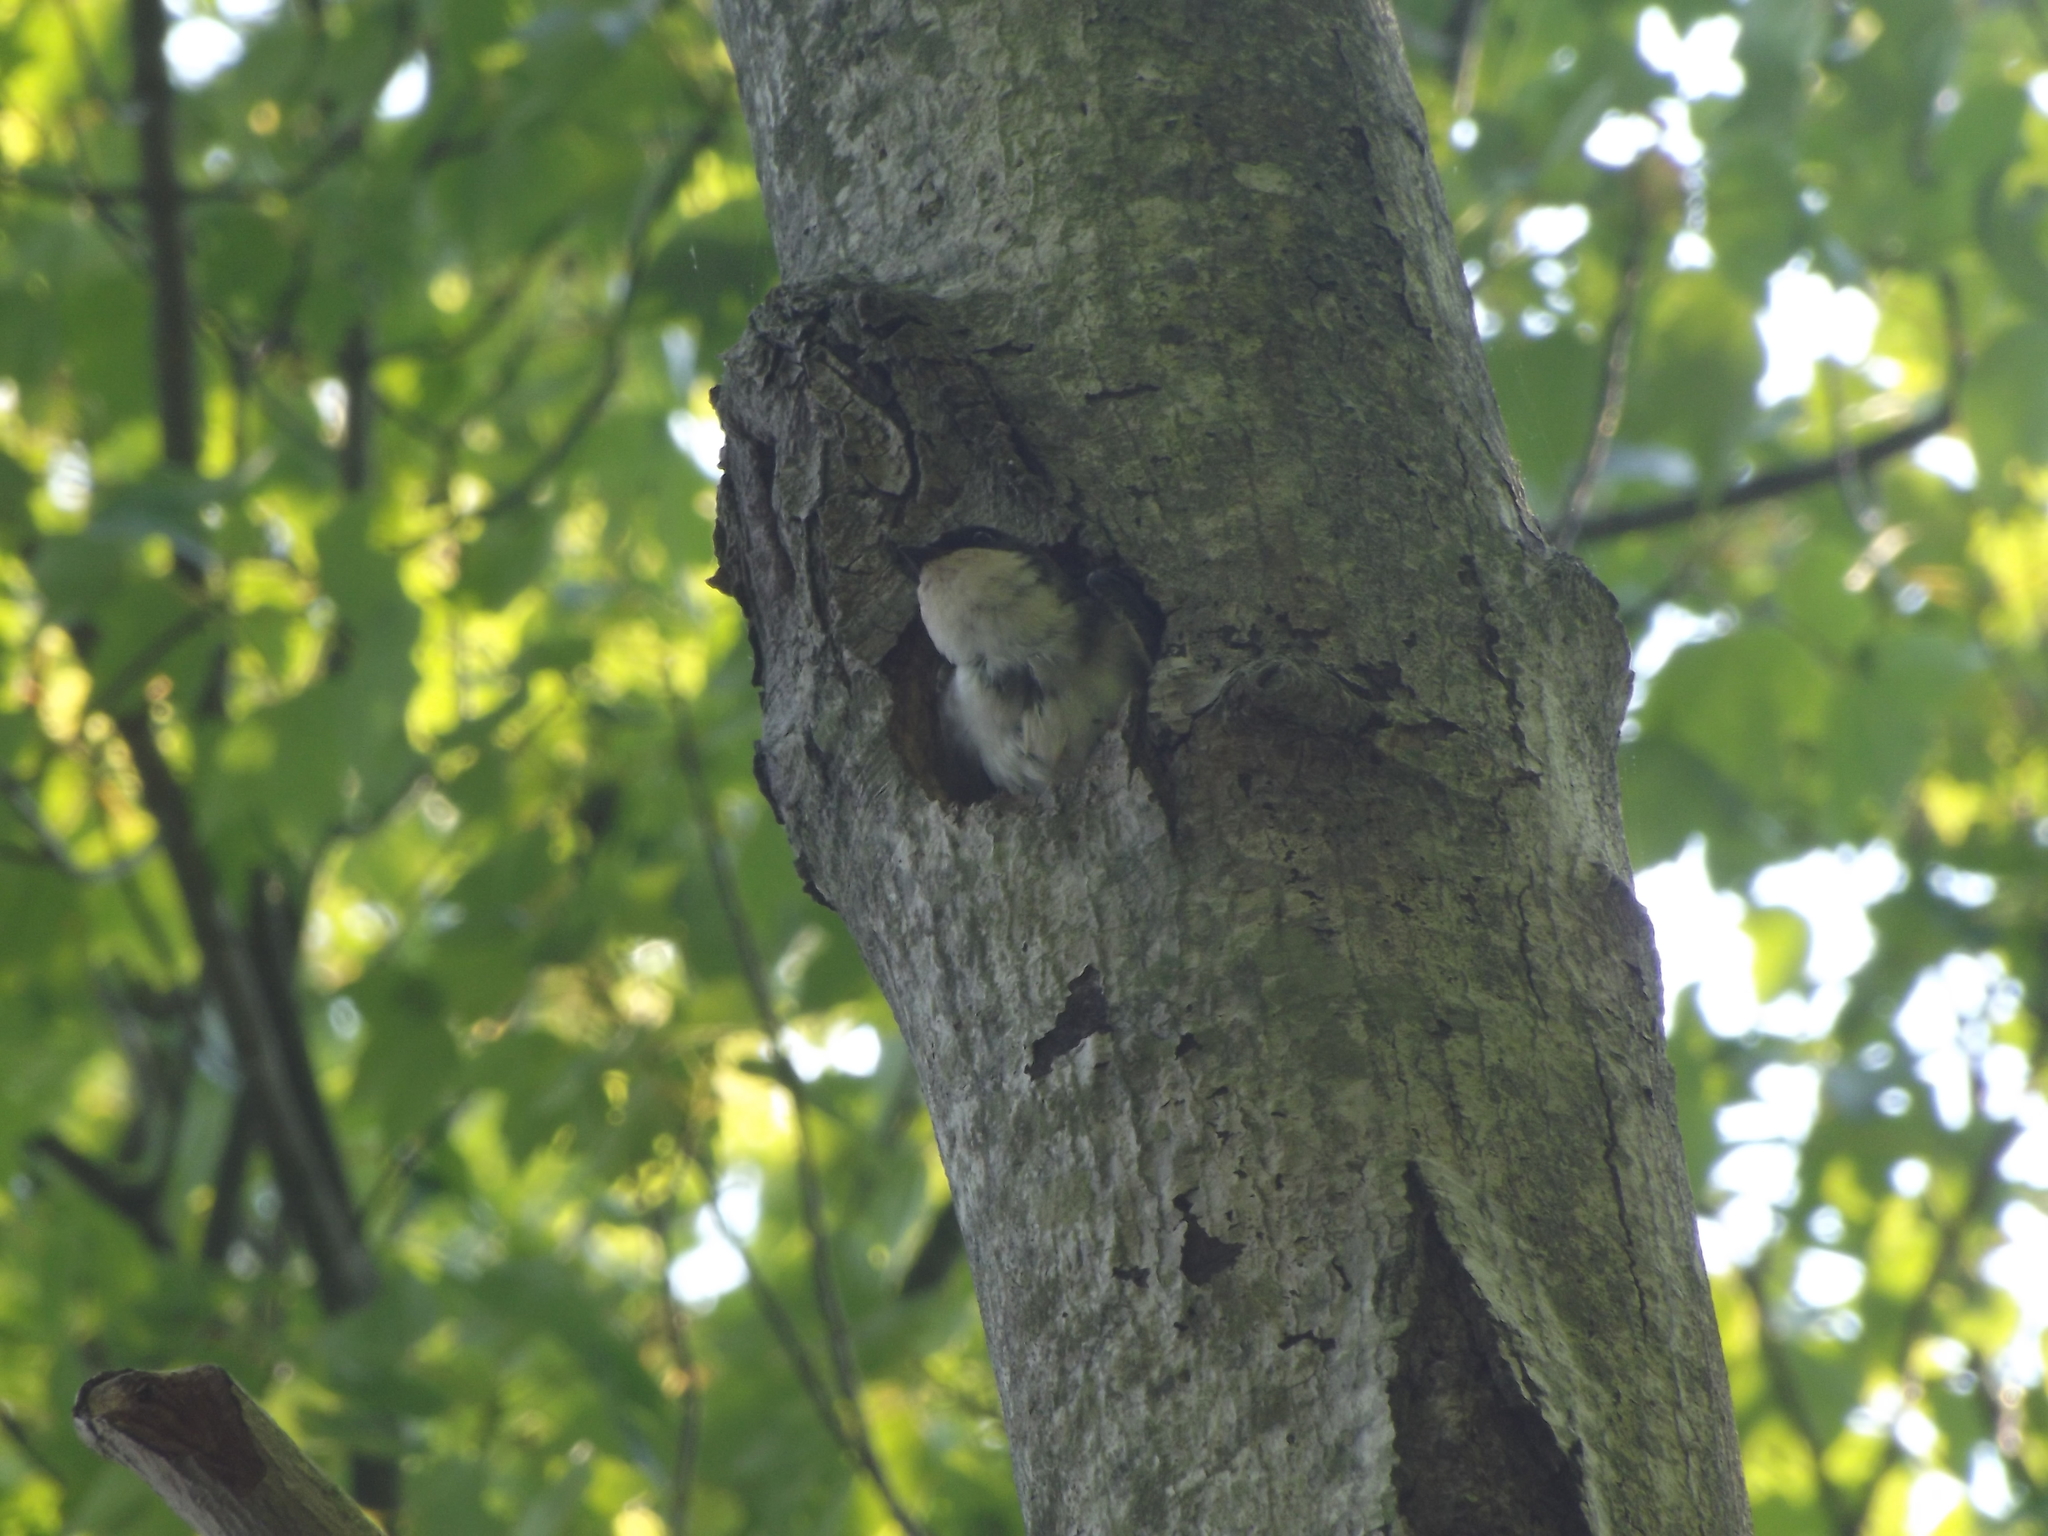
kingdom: Animalia
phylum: Chordata
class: Aves
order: Passeriformes
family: Hirundinidae
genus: Tachycineta
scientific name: Tachycineta bicolor
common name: Tree swallow
